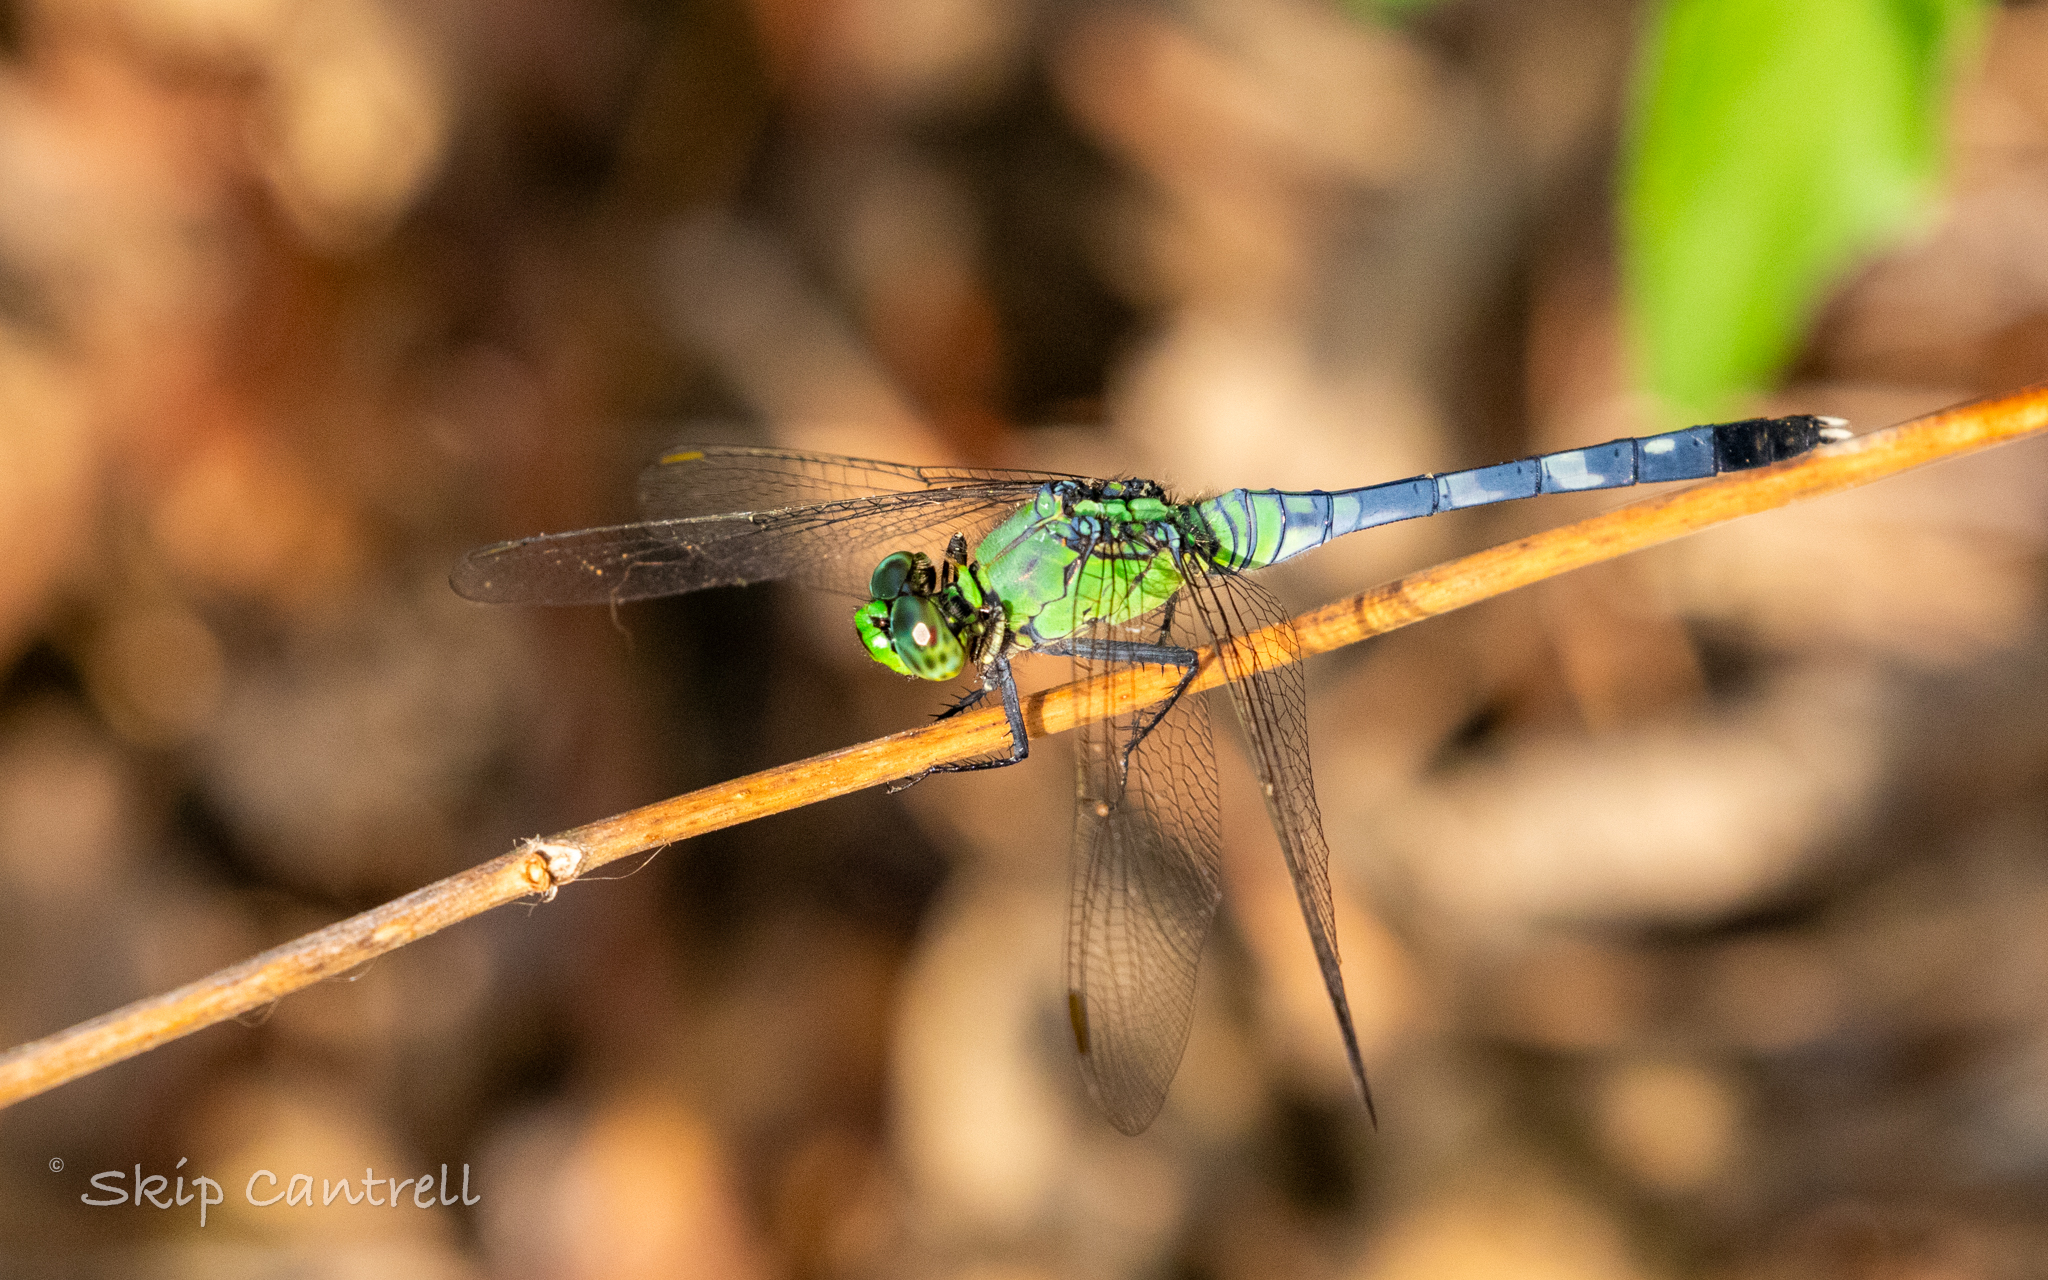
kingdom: Animalia
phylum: Arthropoda
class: Insecta
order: Odonata
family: Libellulidae
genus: Erythemis
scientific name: Erythemis simplicicollis
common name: Eastern pondhawk
